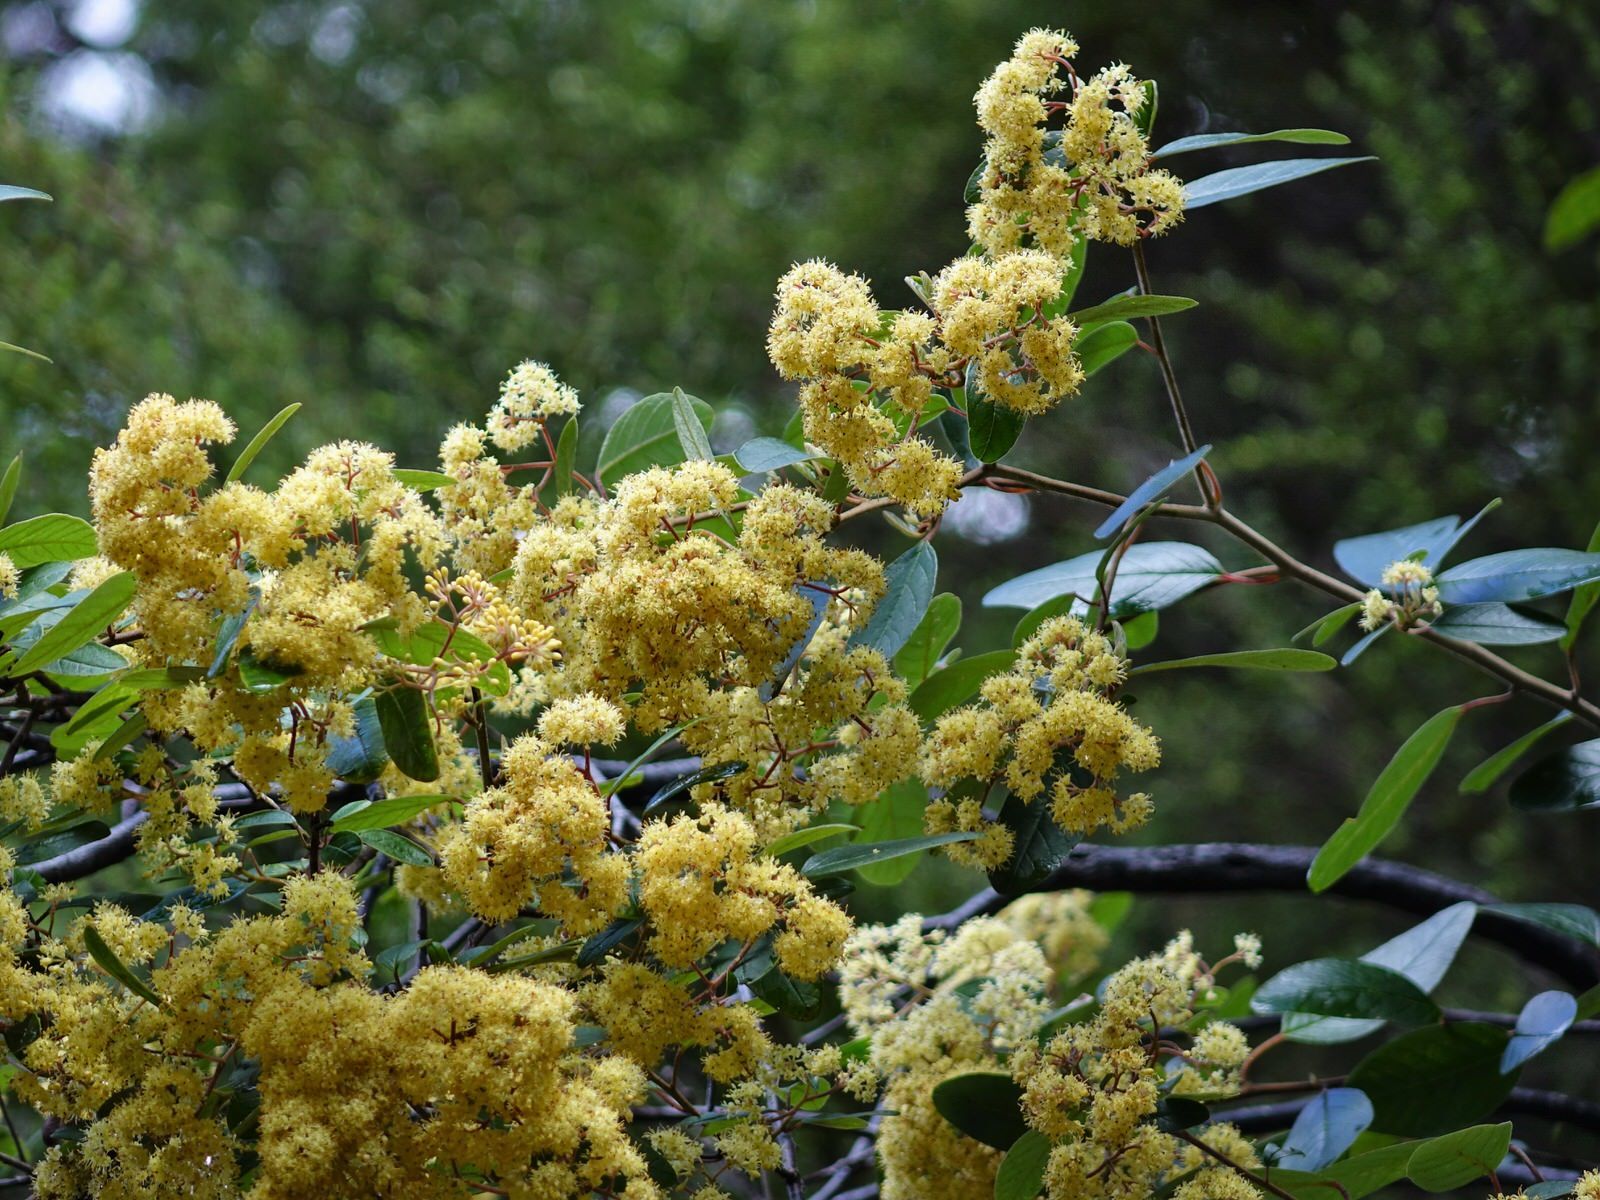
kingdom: Plantae
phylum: Tracheophyta
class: Magnoliopsida
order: Rosales
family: Rhamnaceae
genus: Pomaderris
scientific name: Pomaderris kumeraho
